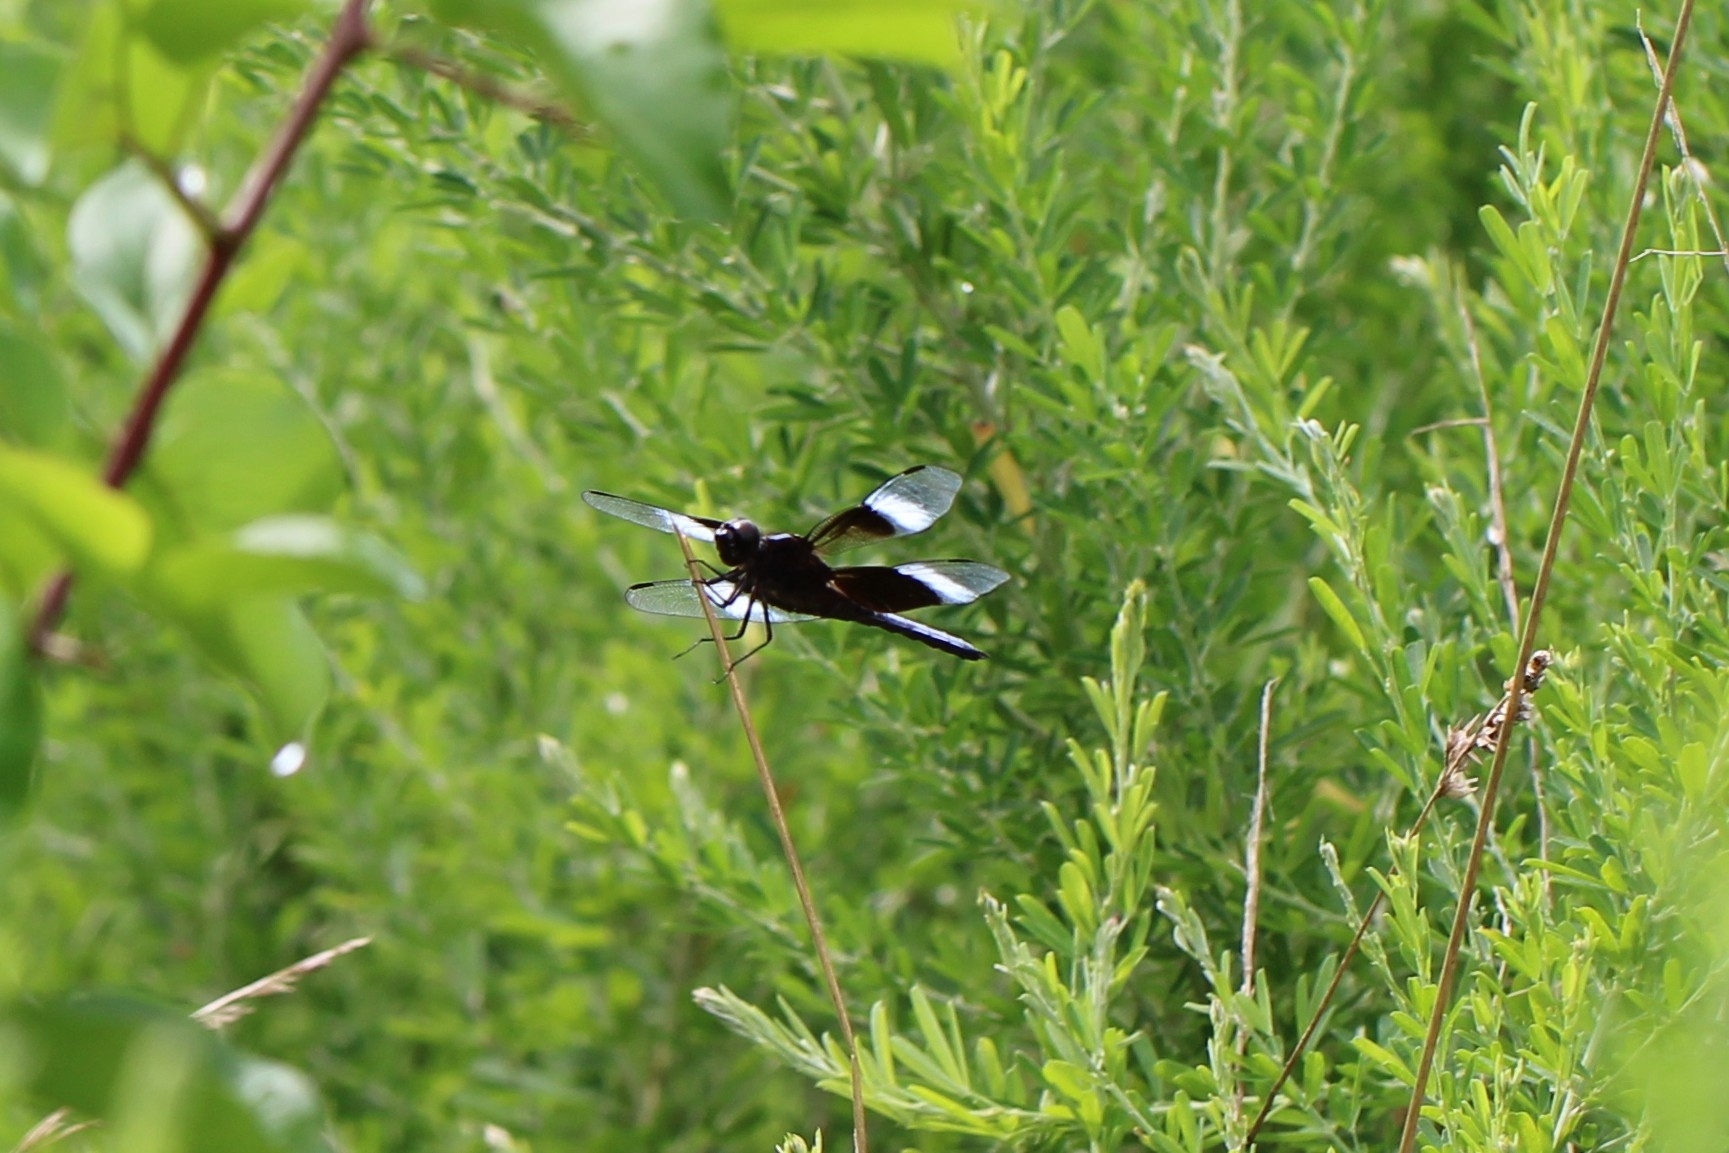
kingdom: Animalia
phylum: Arthropoda
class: Insecta
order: Odonata
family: Libellulidae
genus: Libellula
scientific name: Libellula luctuosa
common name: Widow skimmer
